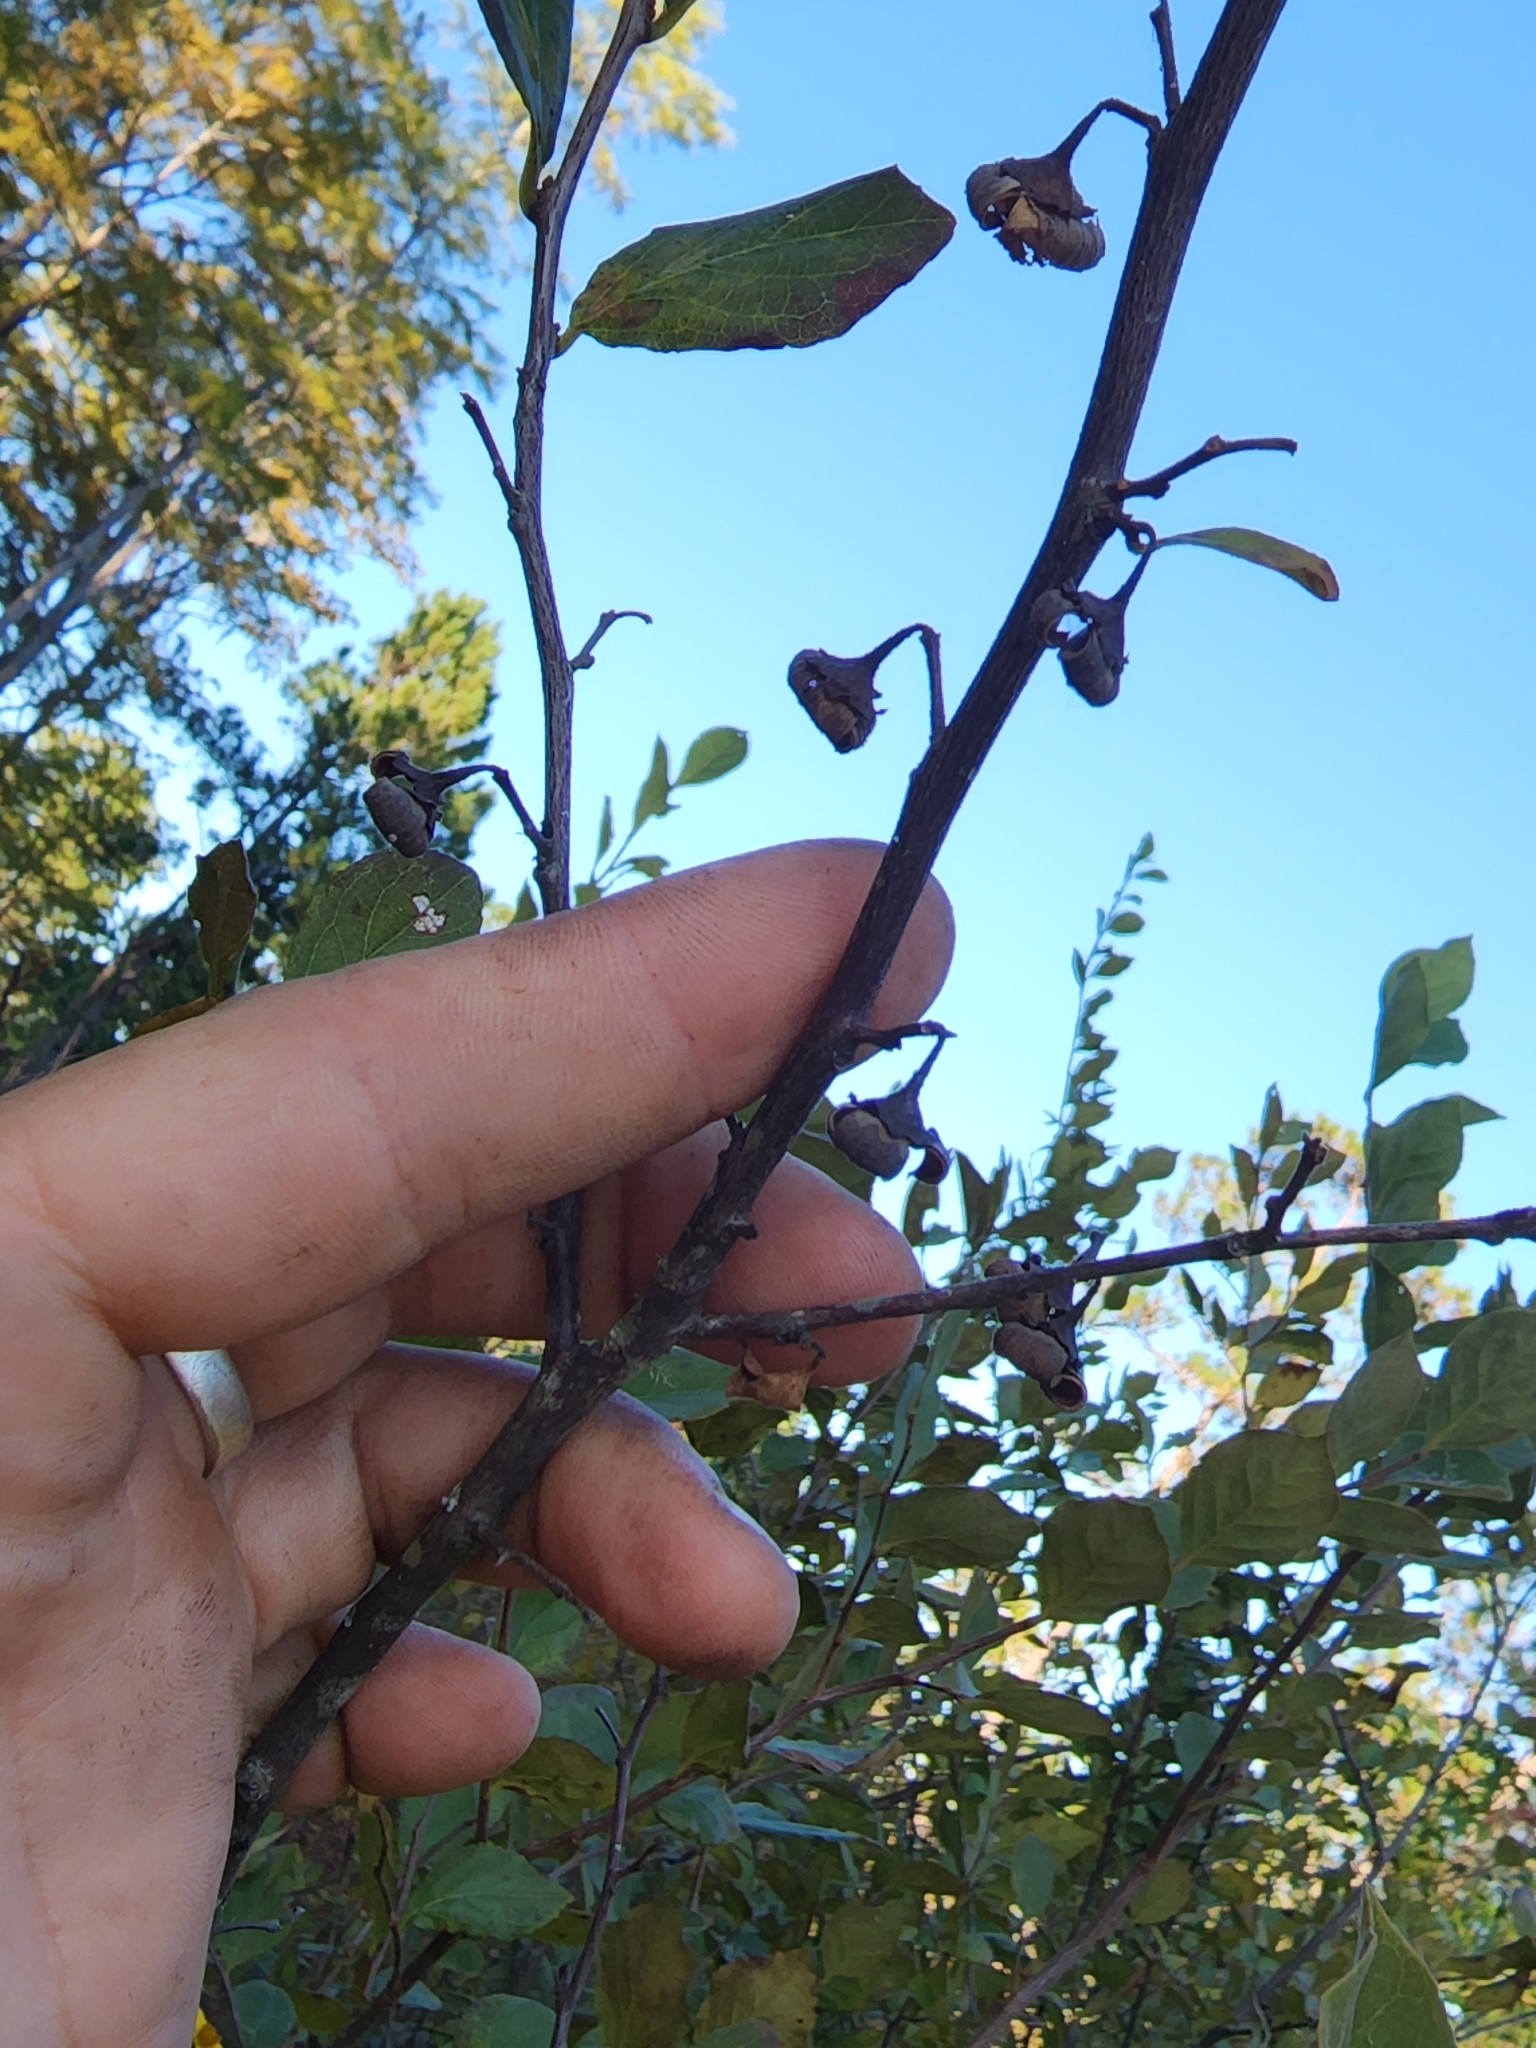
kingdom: Plantae
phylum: Tracheophyta
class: Magnoliopsida
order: Ericales
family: Styracaceae
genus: Styrax
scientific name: Styrax americanus
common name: American snowbell
